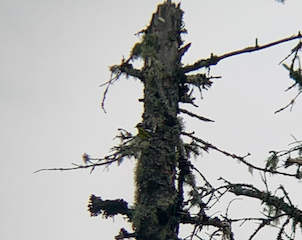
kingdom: Animalia
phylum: Chordata
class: Aves
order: Passeriformes
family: Parulidae
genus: Setophaga
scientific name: Setophaga magnolia
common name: Magnolia warbler
